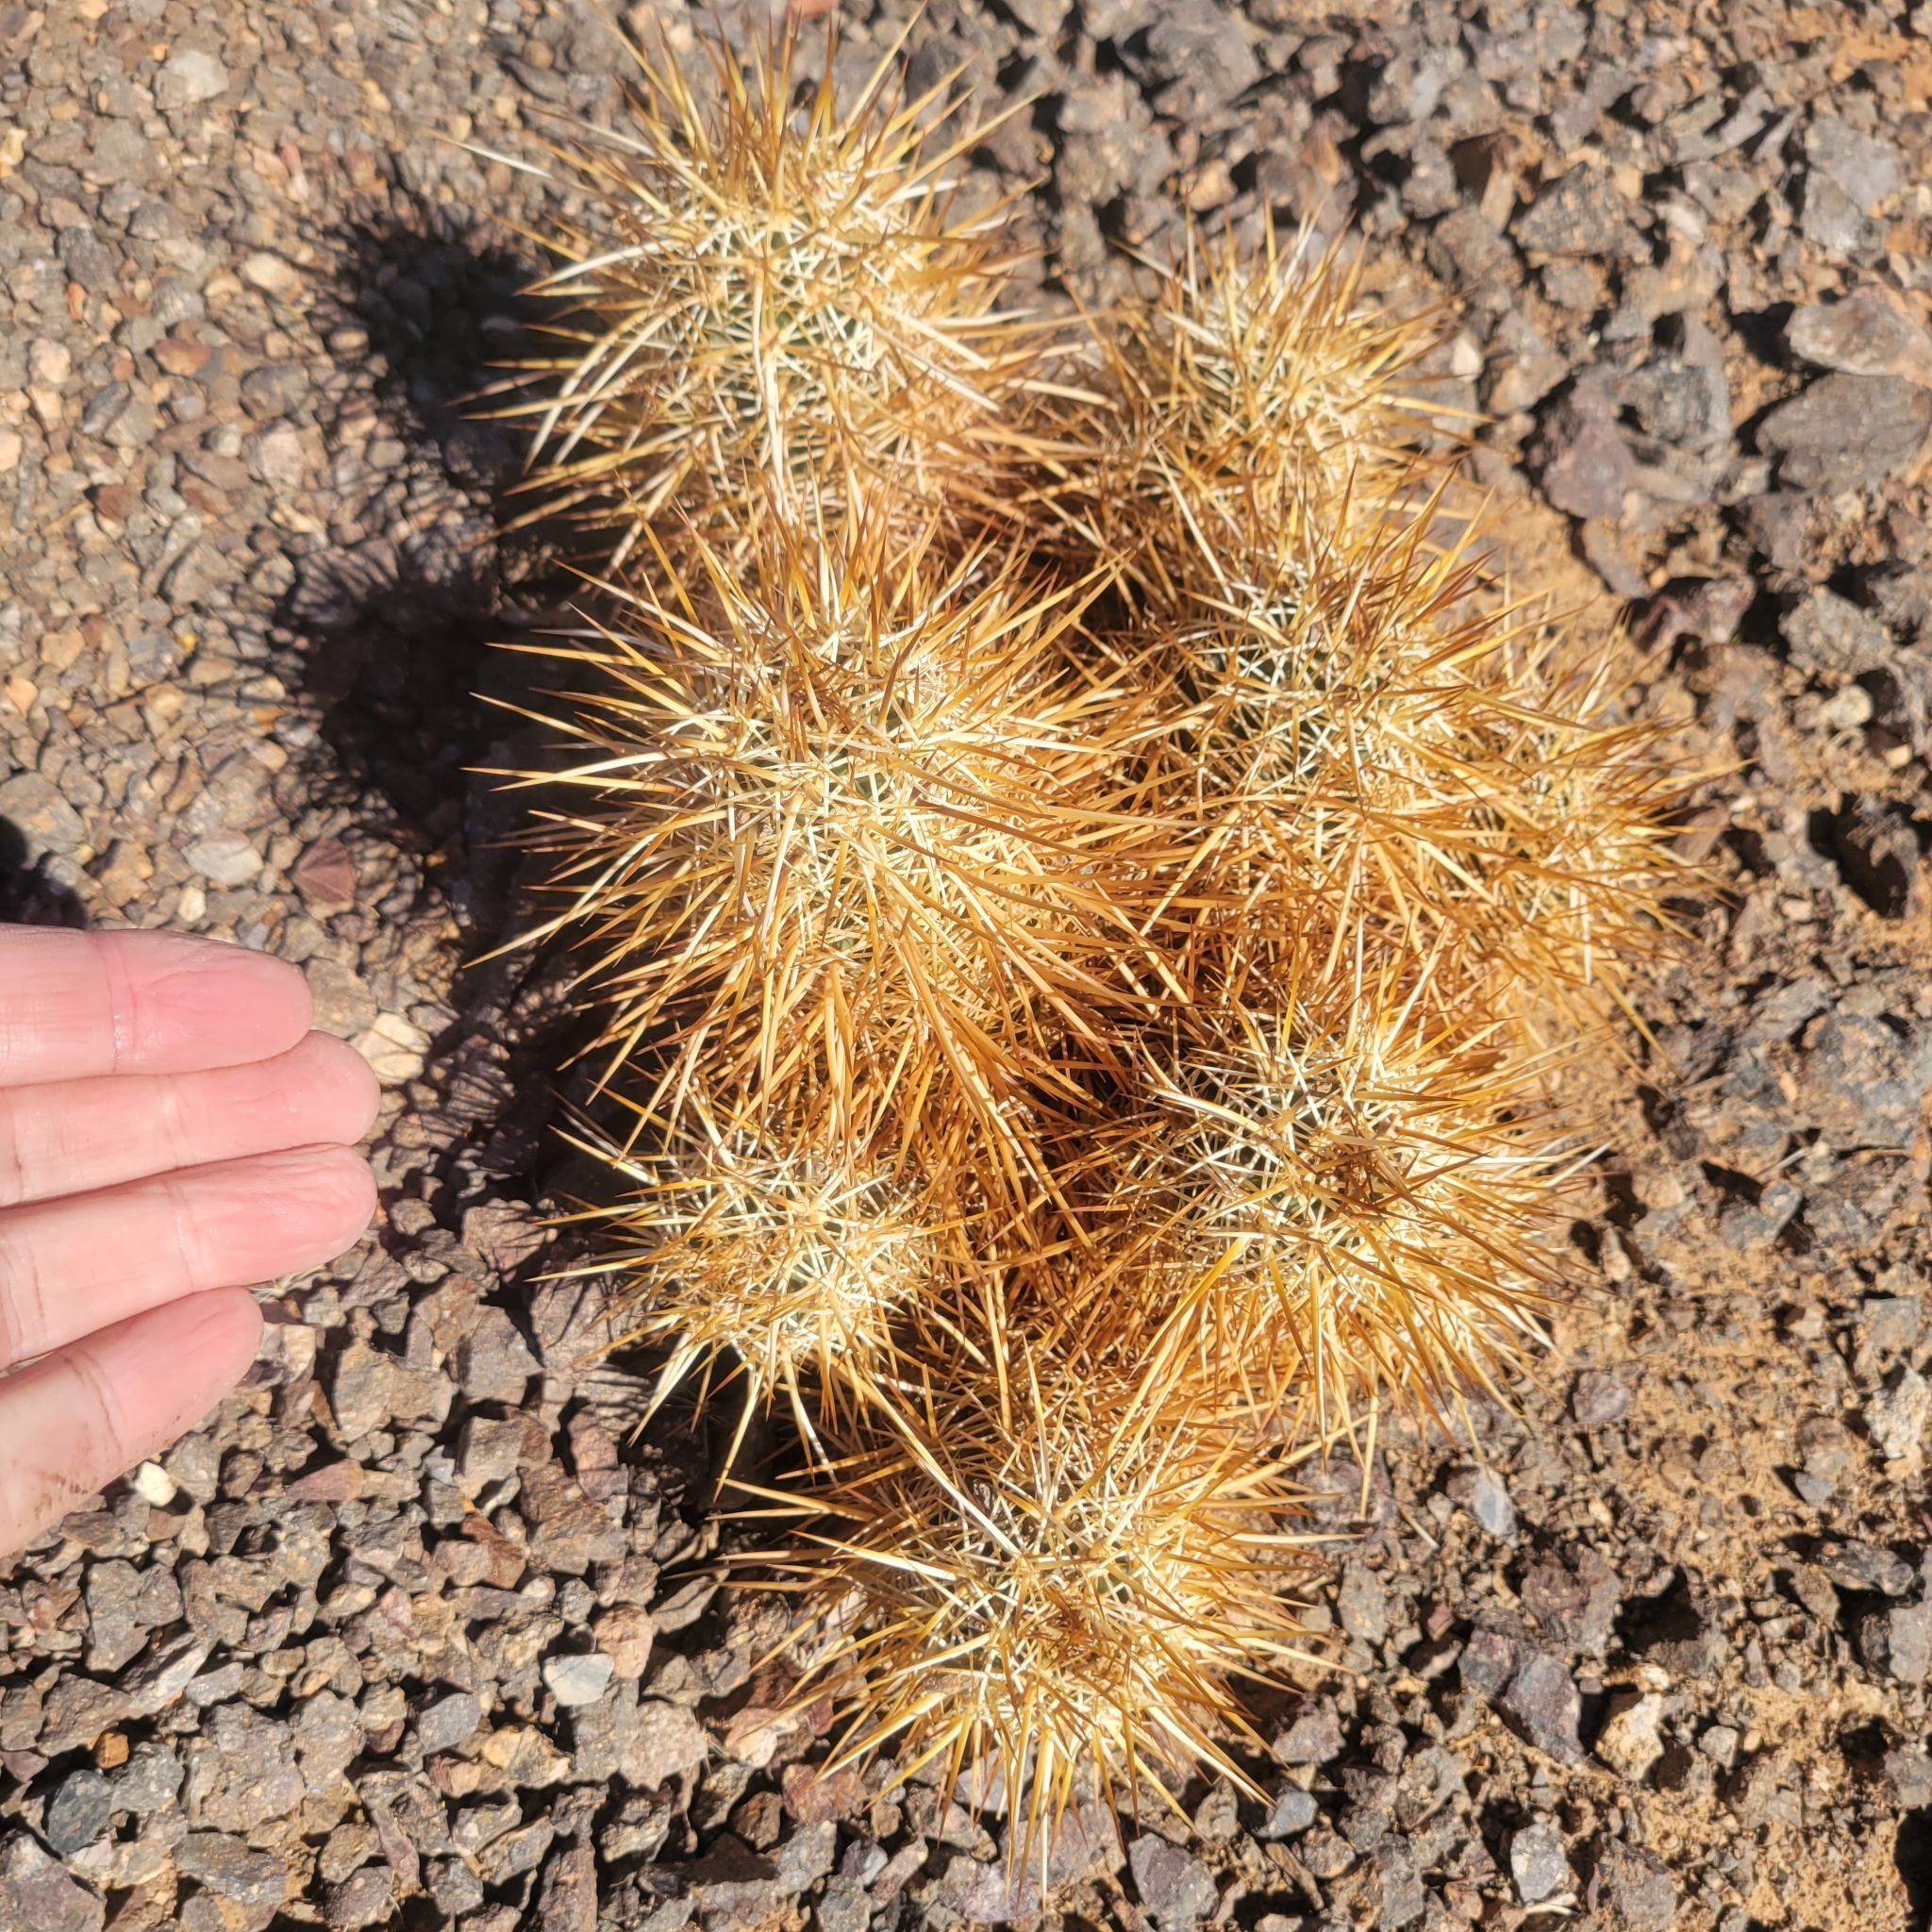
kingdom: Plantae
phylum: Tracheophyta
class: Magnoliopsida
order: Caryophyllales
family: Cactaceae
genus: Echinocereus
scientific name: Echinocereus engelmannii
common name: Engelmann's hedgehog cactus
